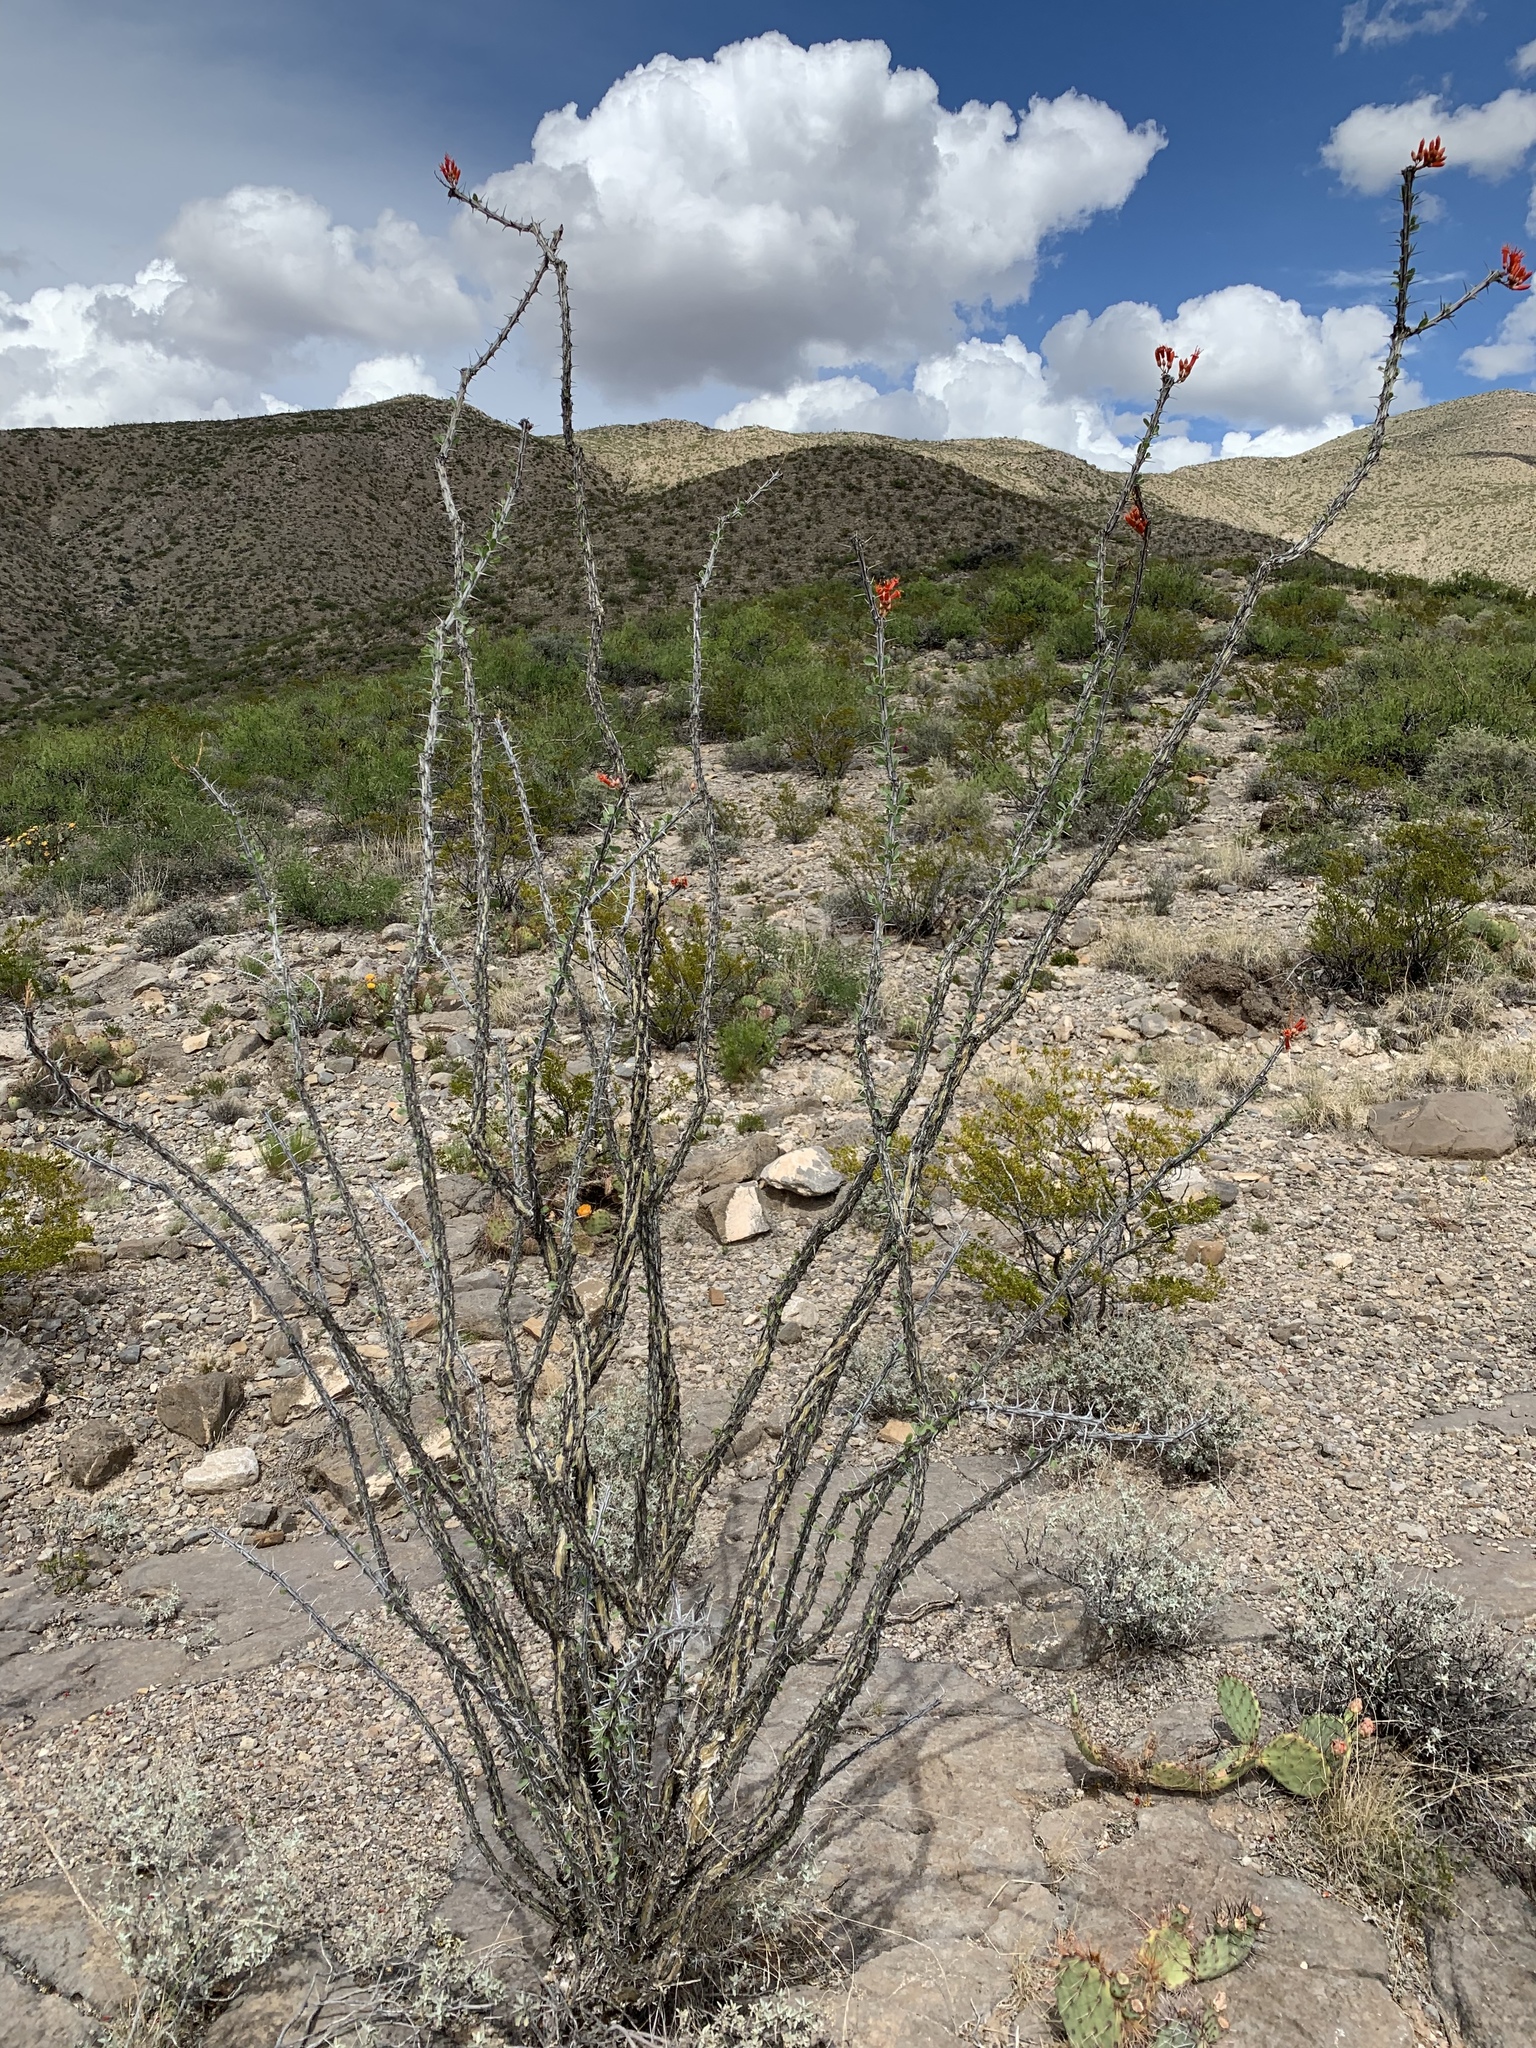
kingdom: Plantae
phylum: Tracheophyta
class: Magnoliopsida
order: Ericales
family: Fouquieriaceae
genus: Fouquieria
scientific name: Fouquieria splendens
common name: Vine-cactus
